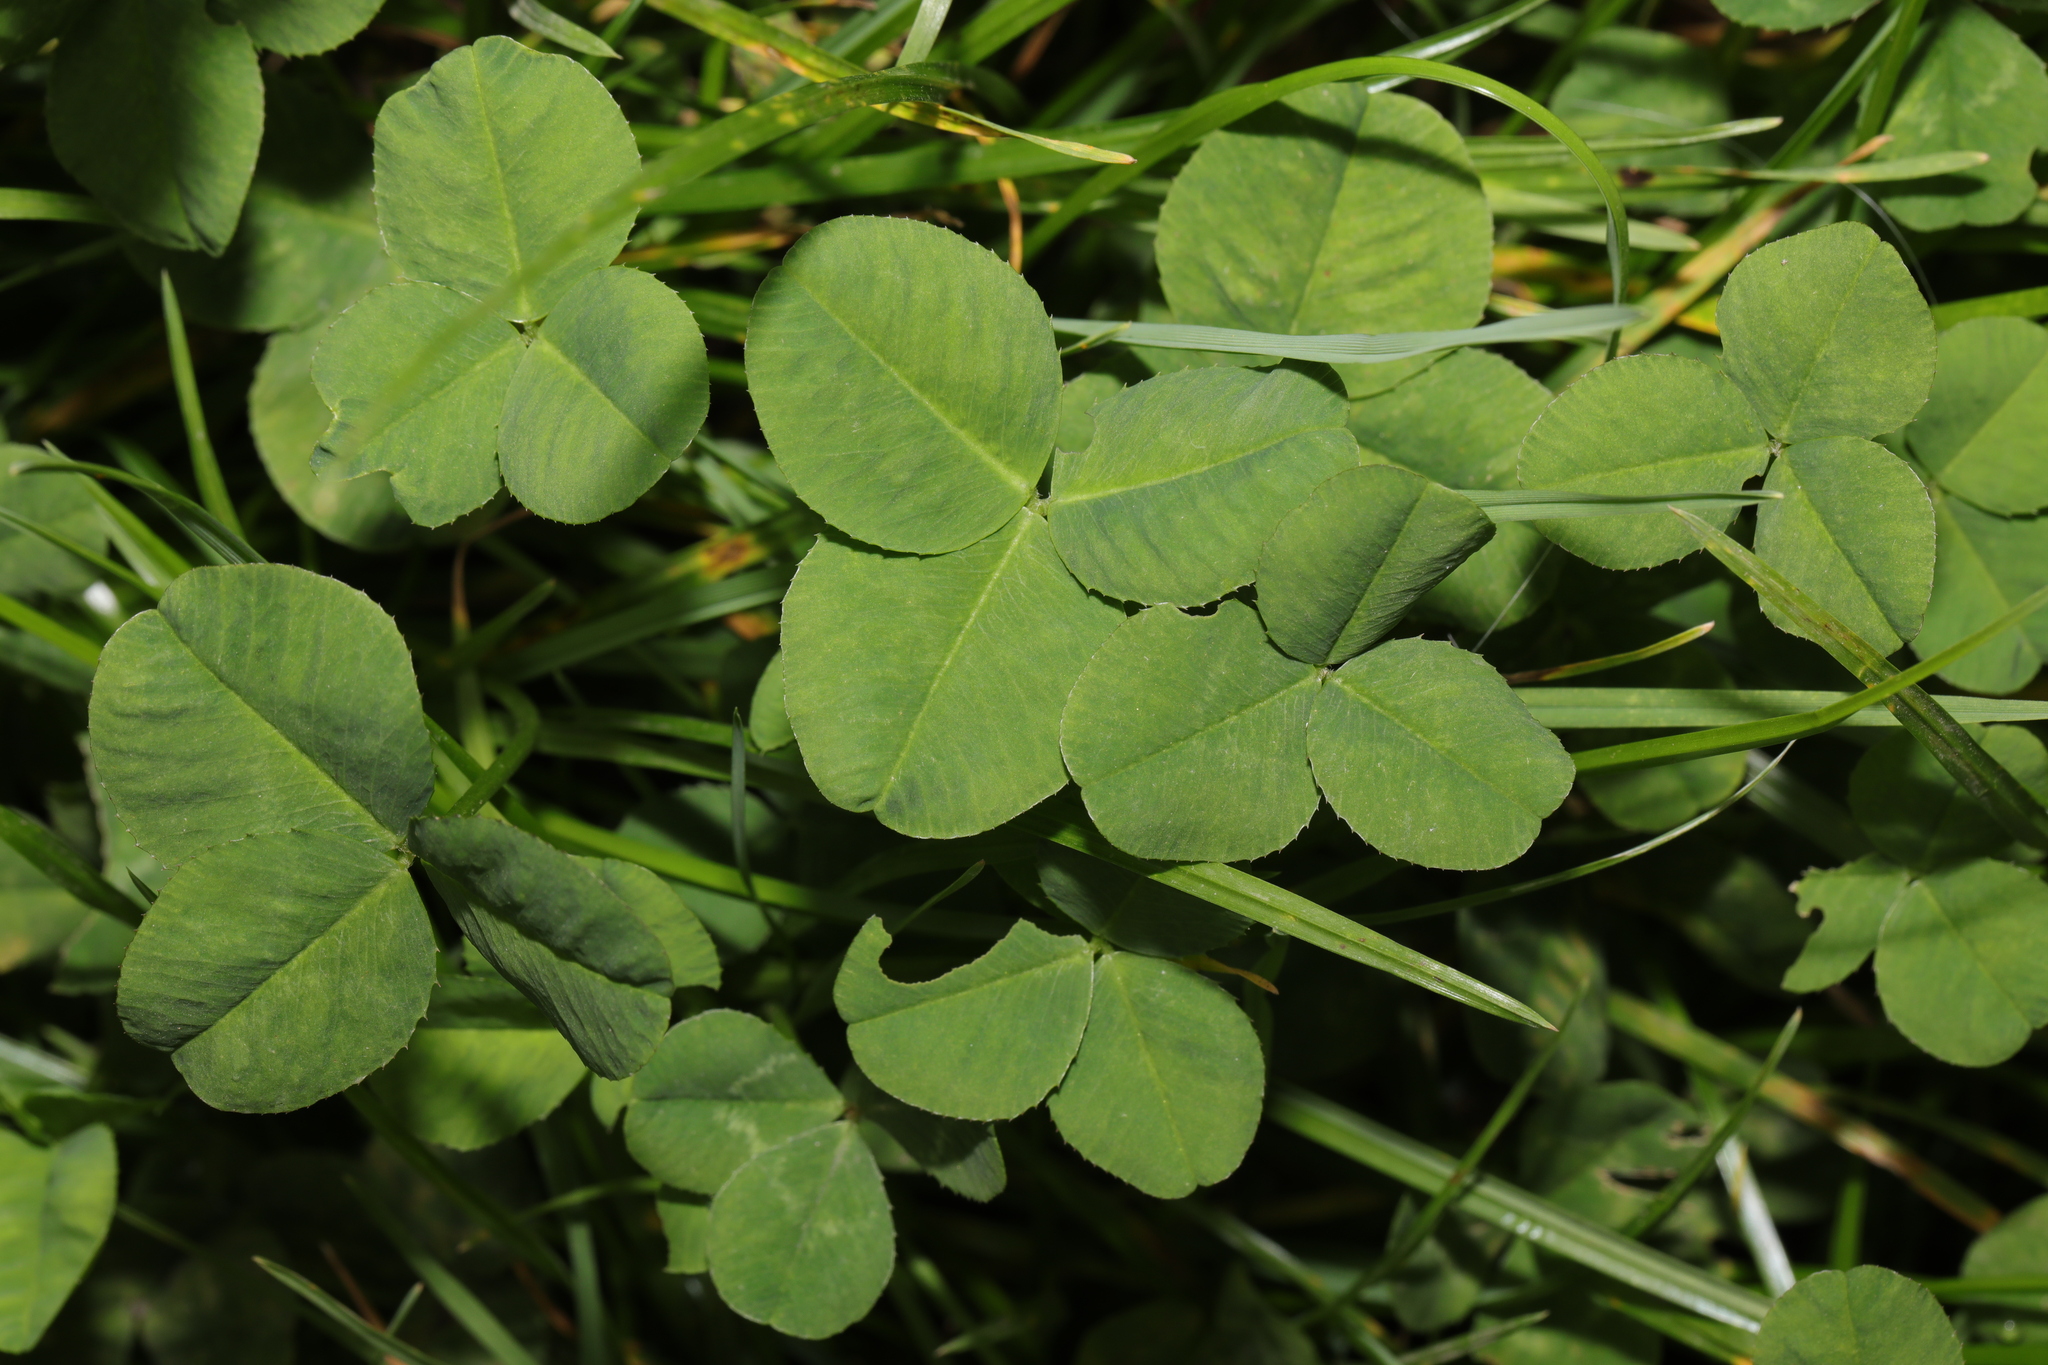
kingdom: Plantae
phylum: Tracheophyta
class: Magnoliopsida
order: Fabales
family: Fabaceae
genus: Trifolium
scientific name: Trifolium repens
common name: White clover
